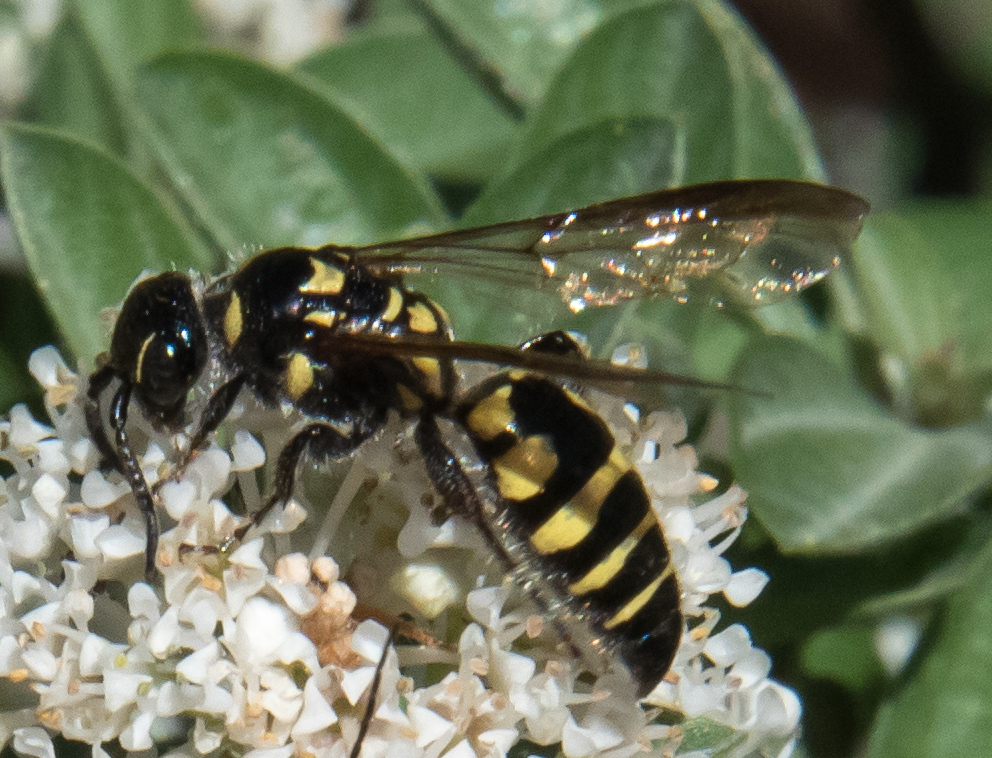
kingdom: Animalia
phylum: Arthropoda
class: Insecta
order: Hymenoptera
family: Tiphiidae
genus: Myzinum
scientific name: Myzinum maculatum
